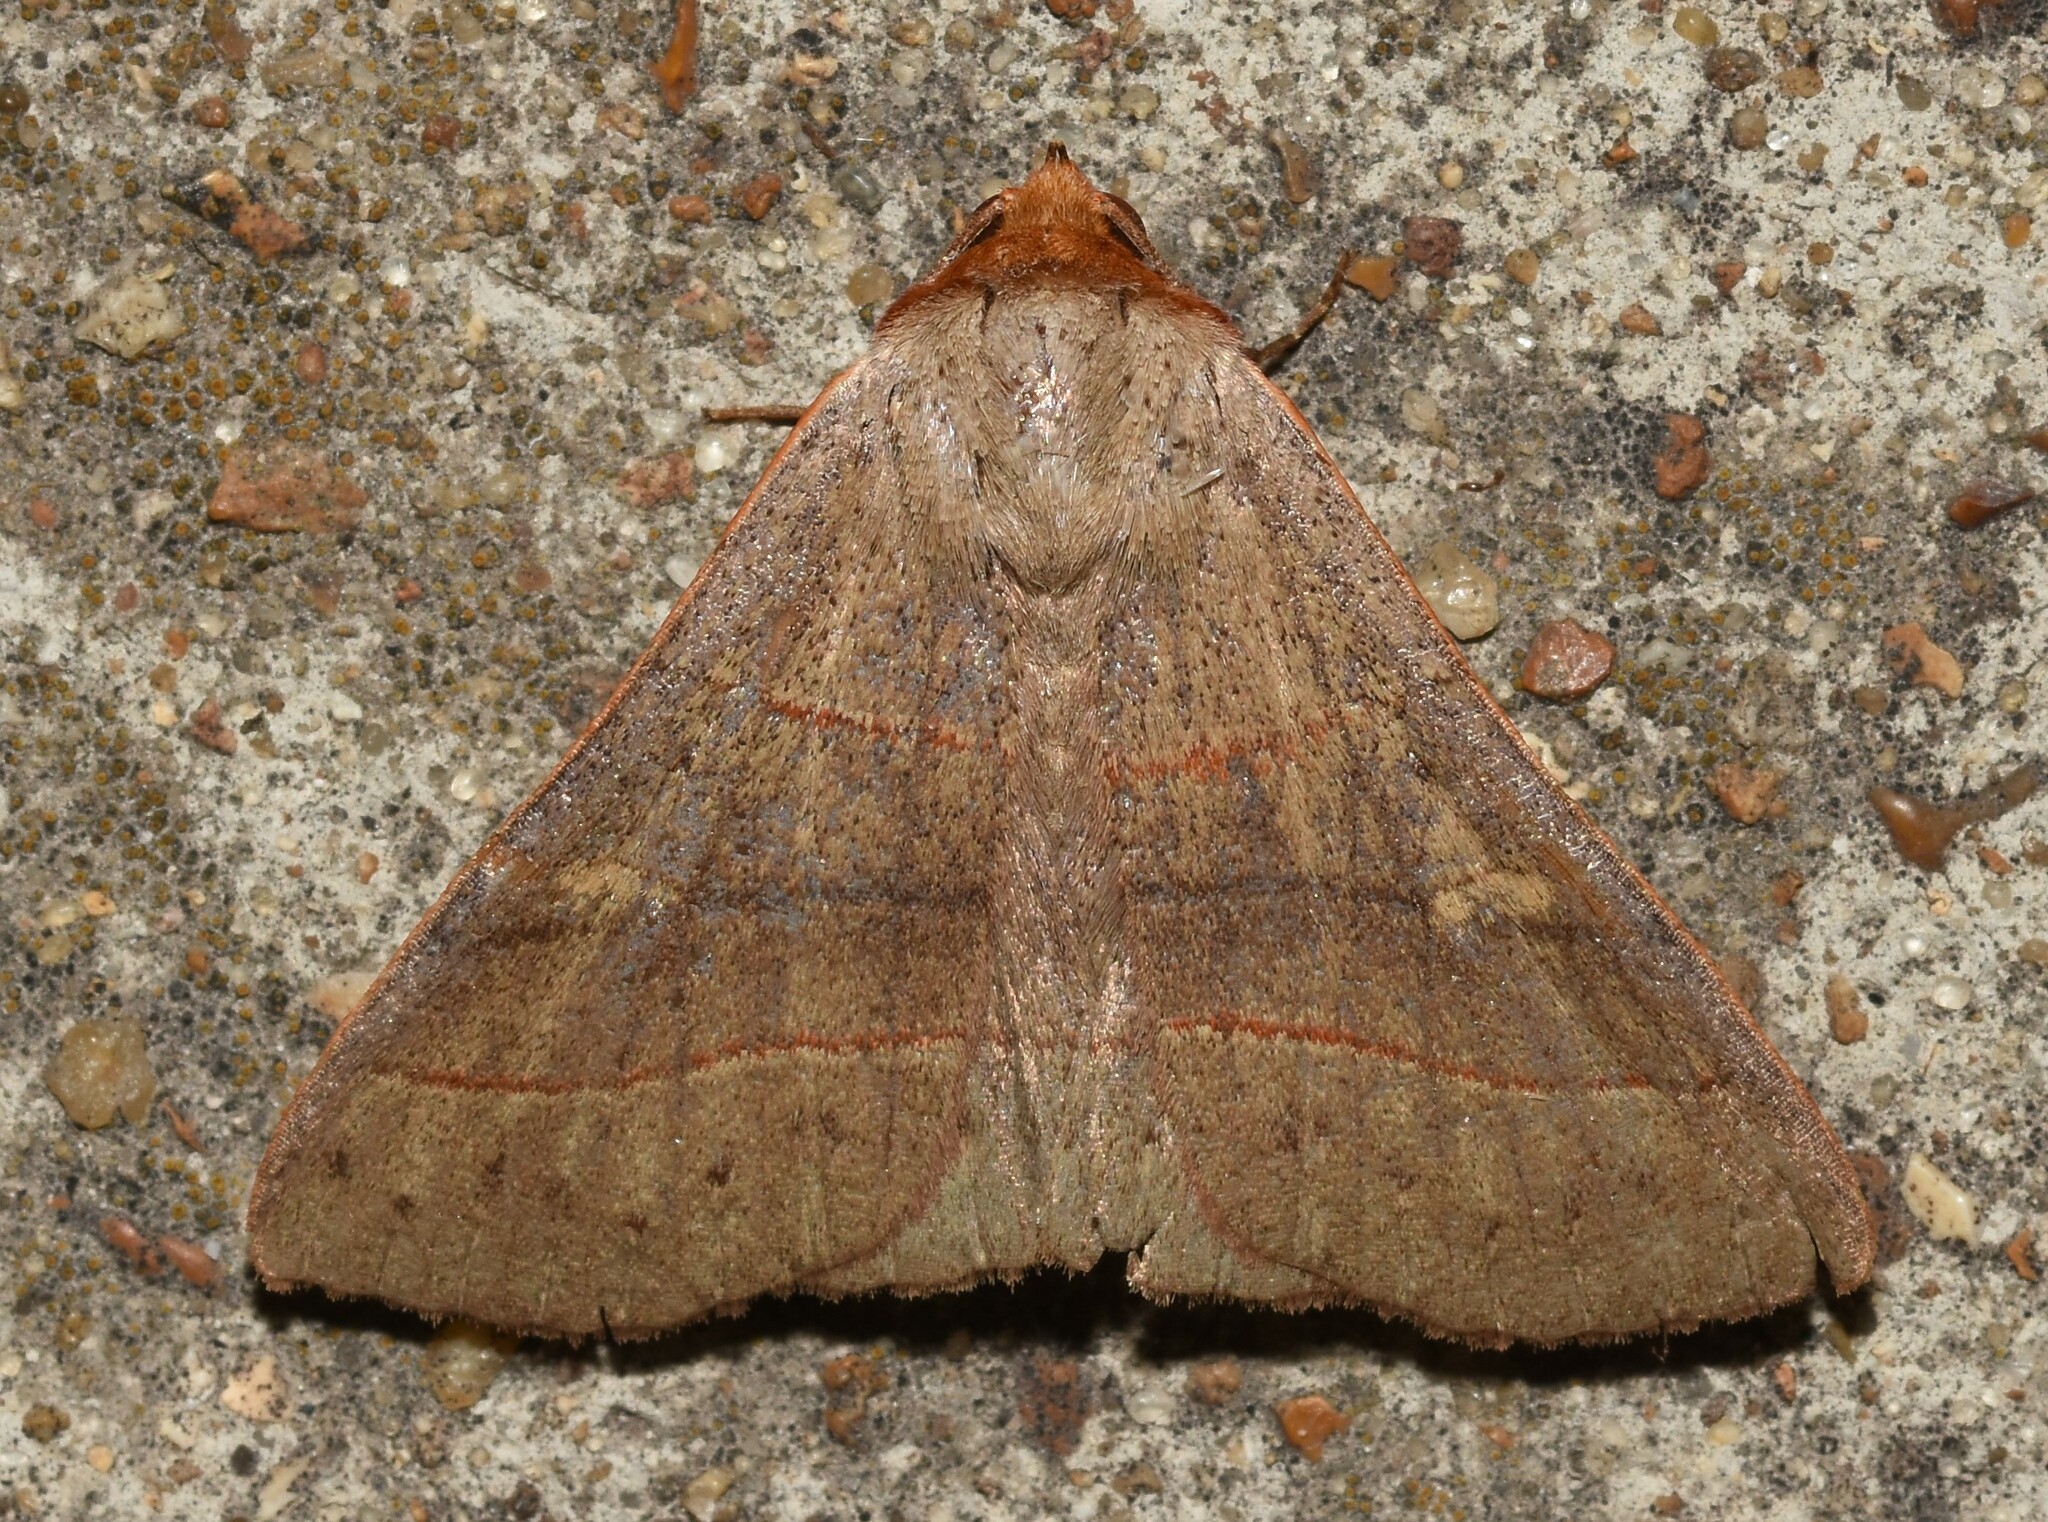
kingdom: Animalia
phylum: Arthropoda
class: Insecta
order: Lepidoptera
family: Erebidae
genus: Panopoda
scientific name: Panopoda rufimargo
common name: Red-lined panopoda moth
